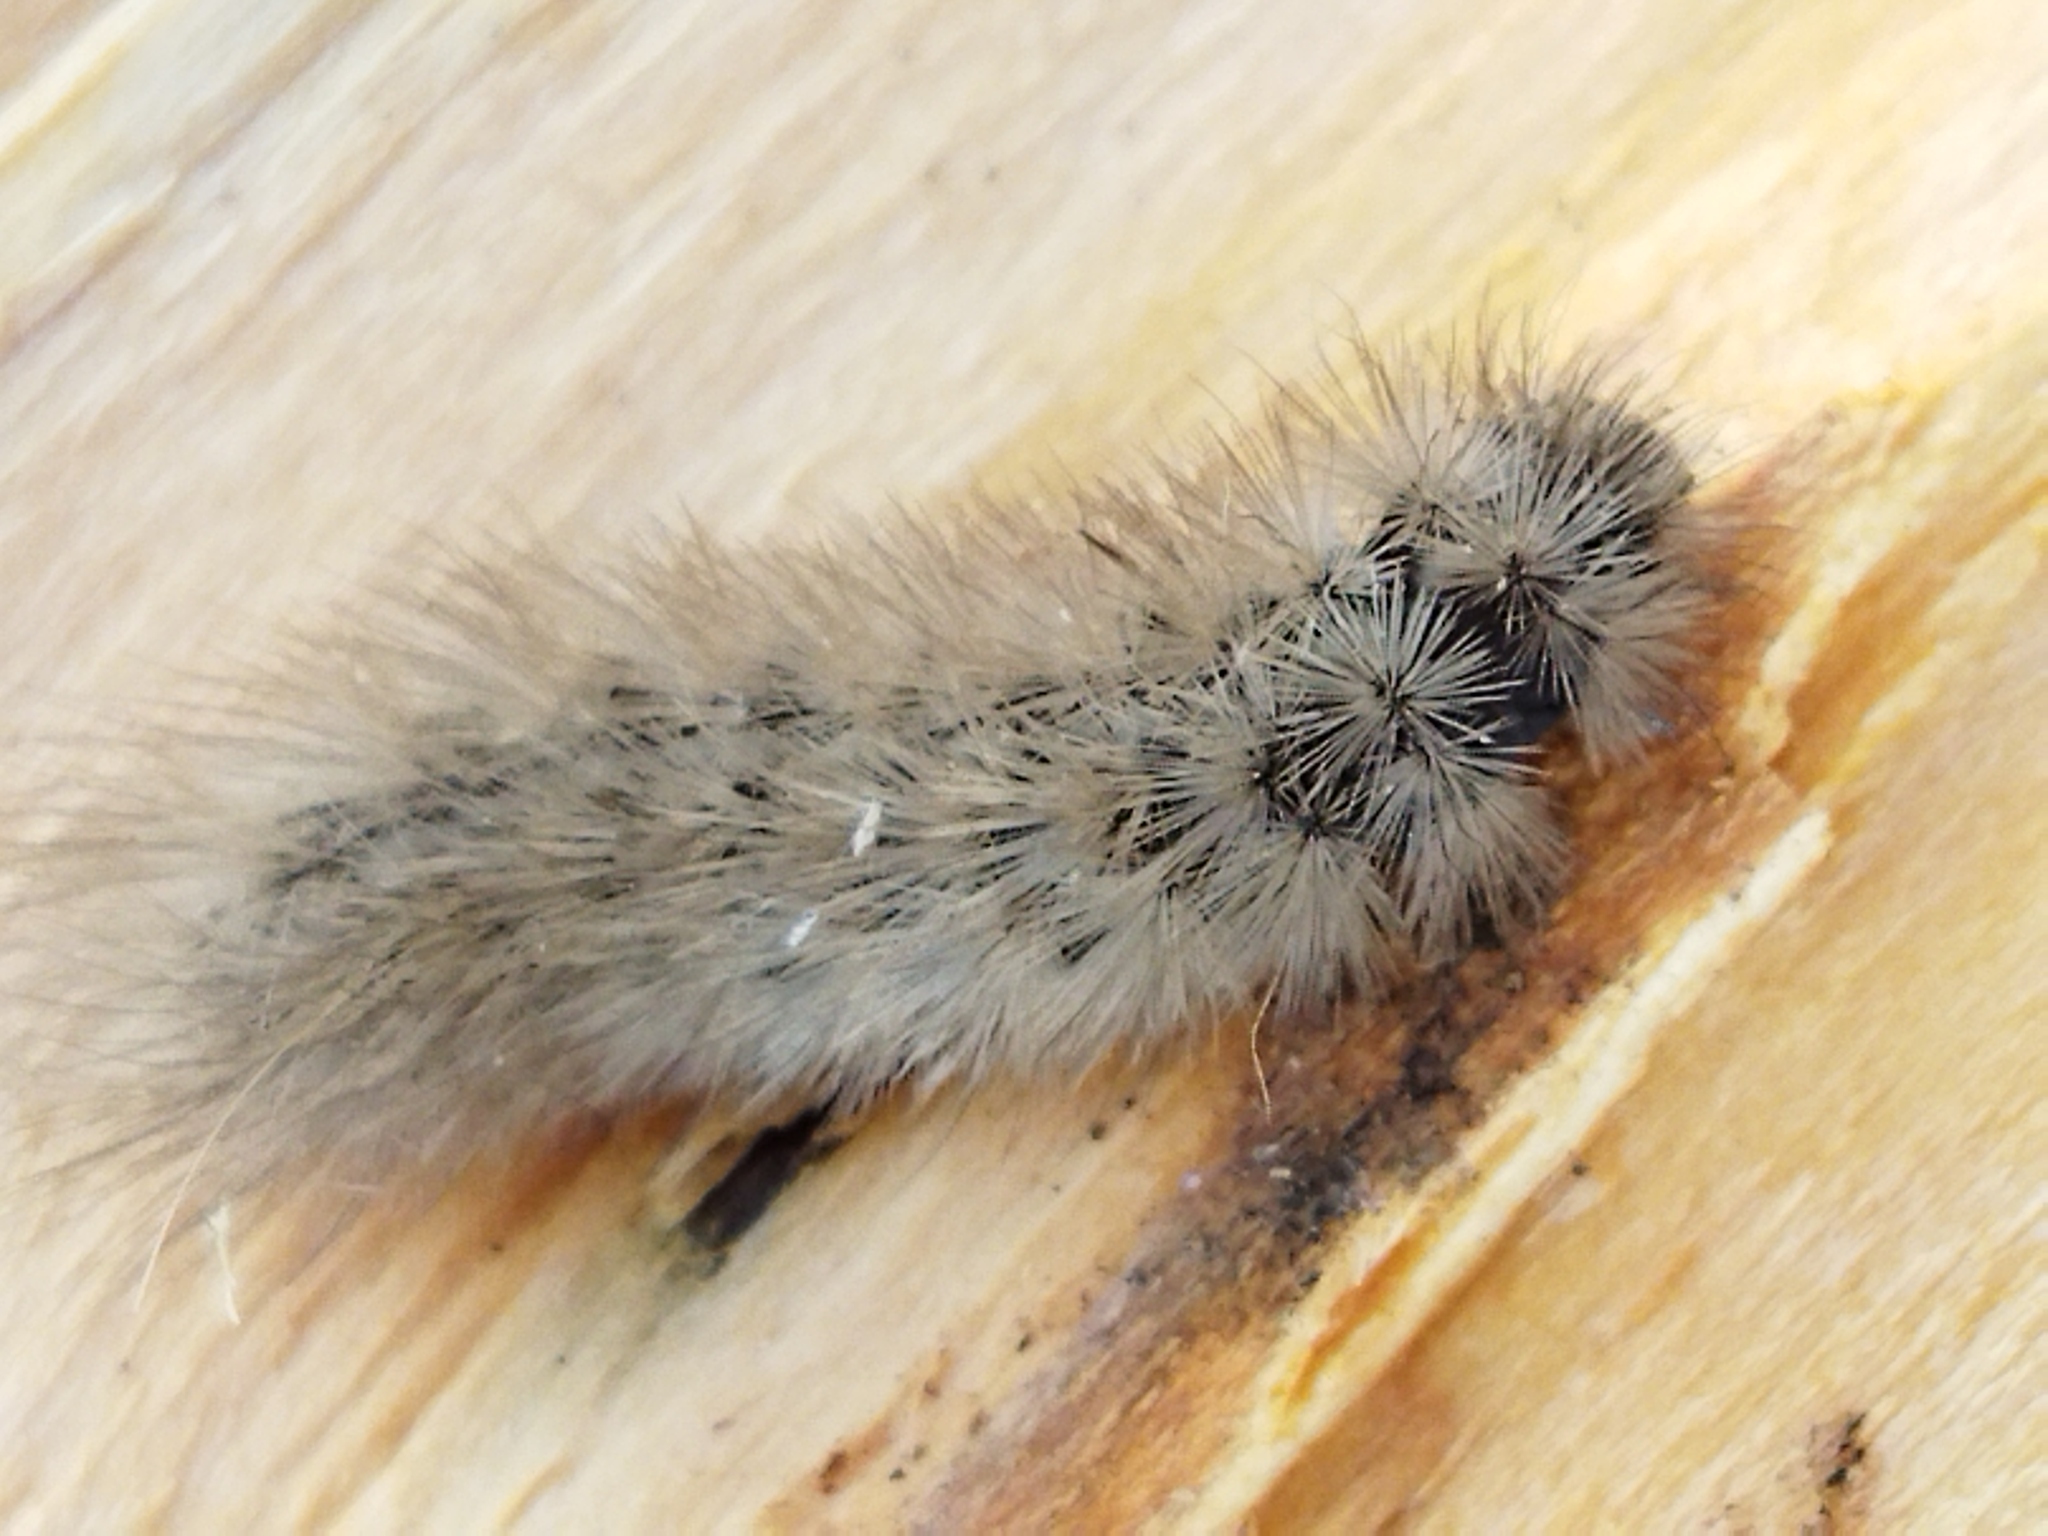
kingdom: Animalia
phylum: Arthropoda
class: Insecta
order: Lepidoptera
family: Erebidae
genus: Phragmatobia
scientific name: Phragmatobia fuliginosa
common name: Ruby tiger
